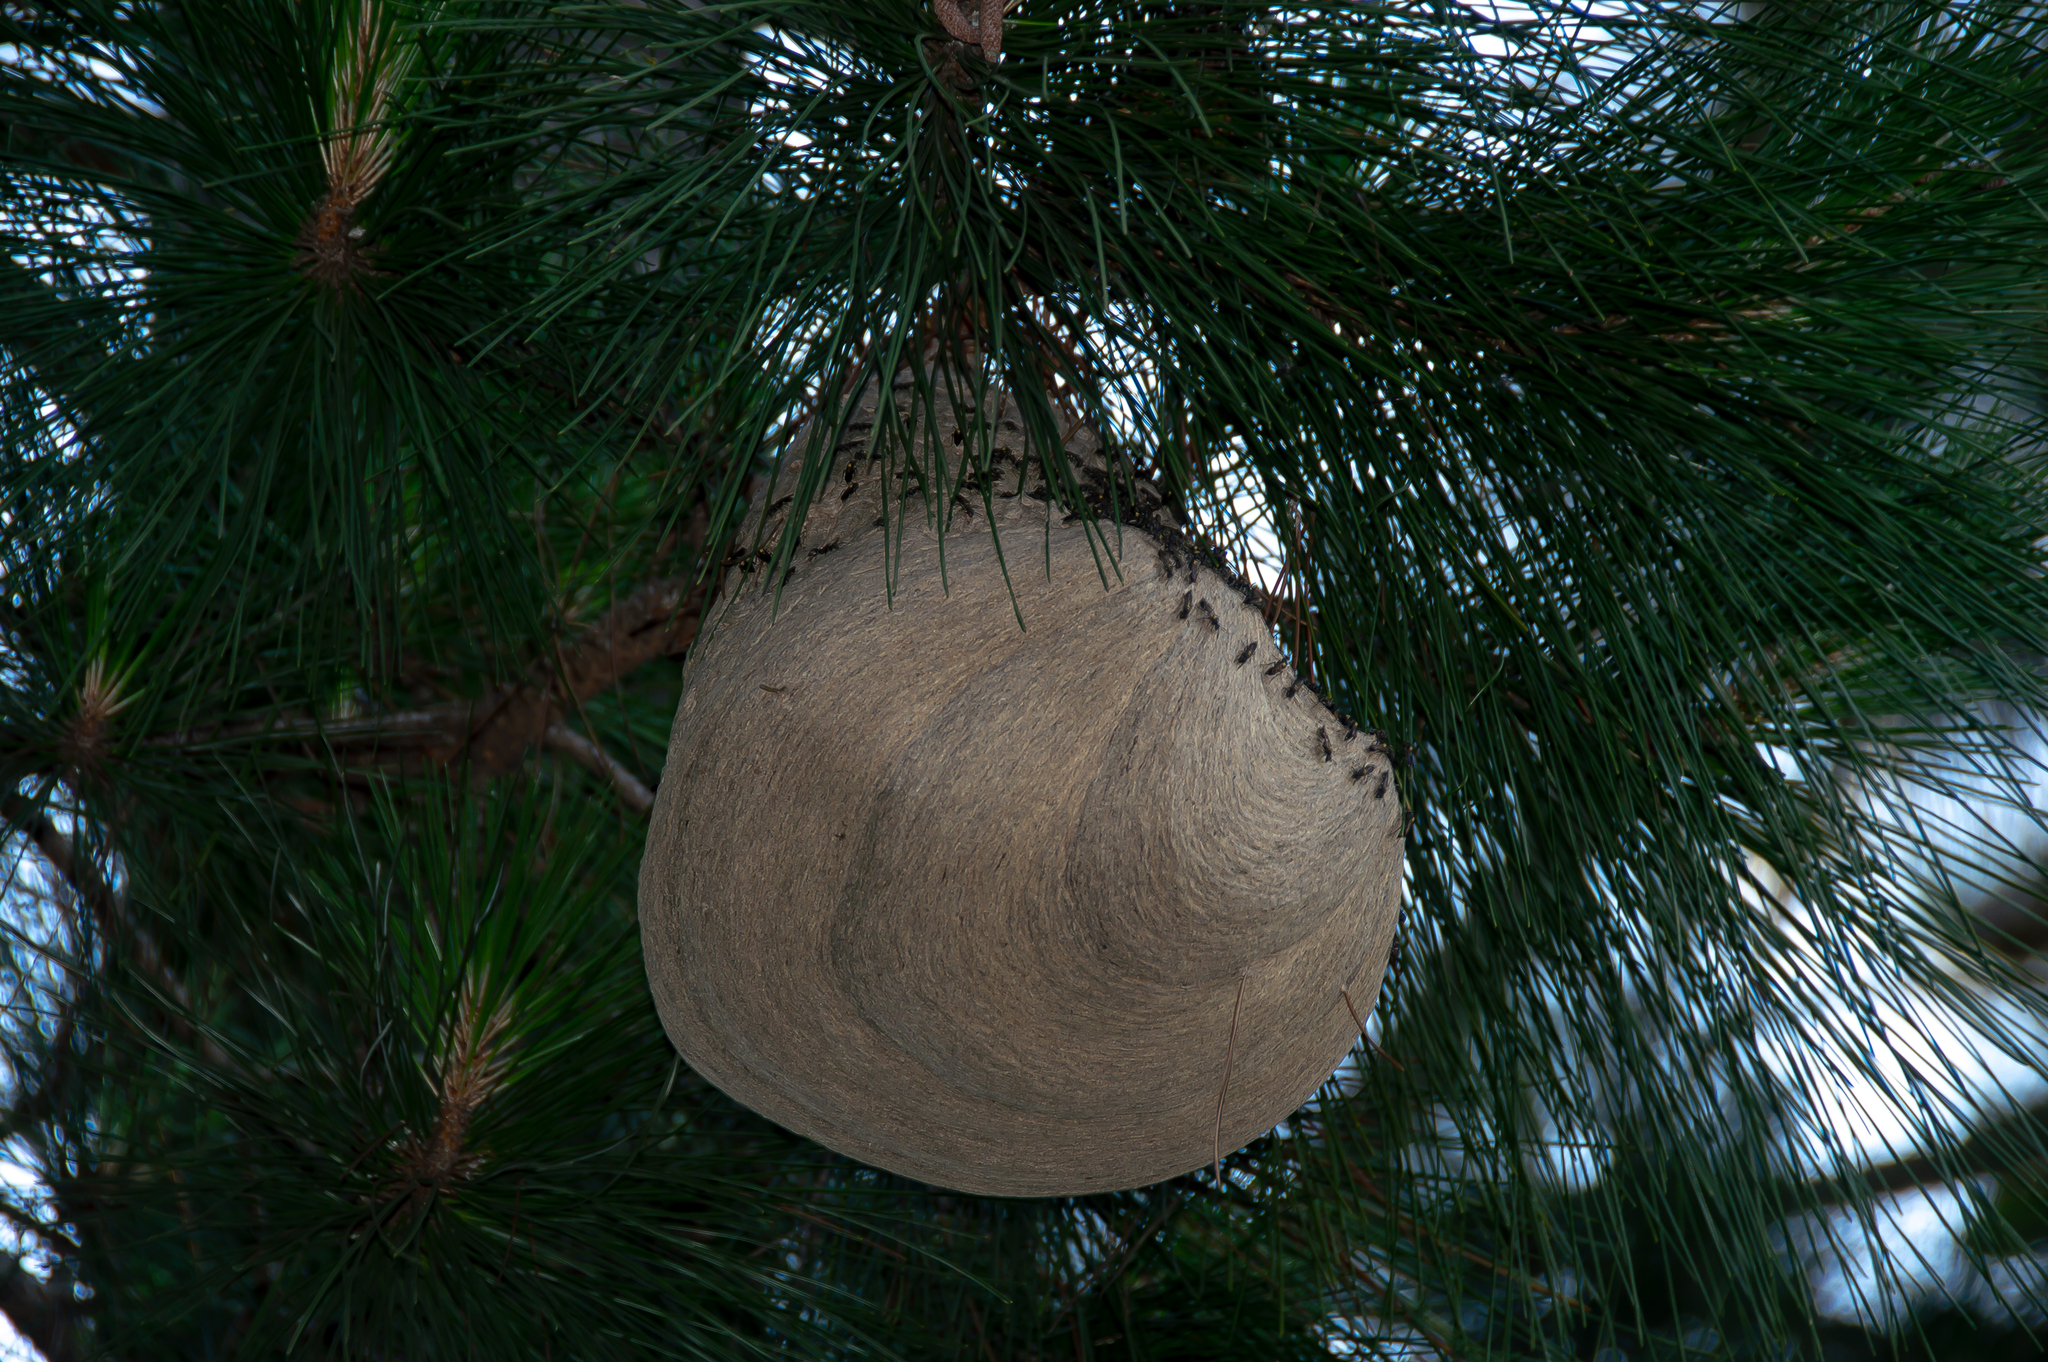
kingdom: Animalia
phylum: Arthropoda
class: Insecta
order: Hymenoptera
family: Eumenidae
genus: Polybia
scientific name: Polybia paulista
